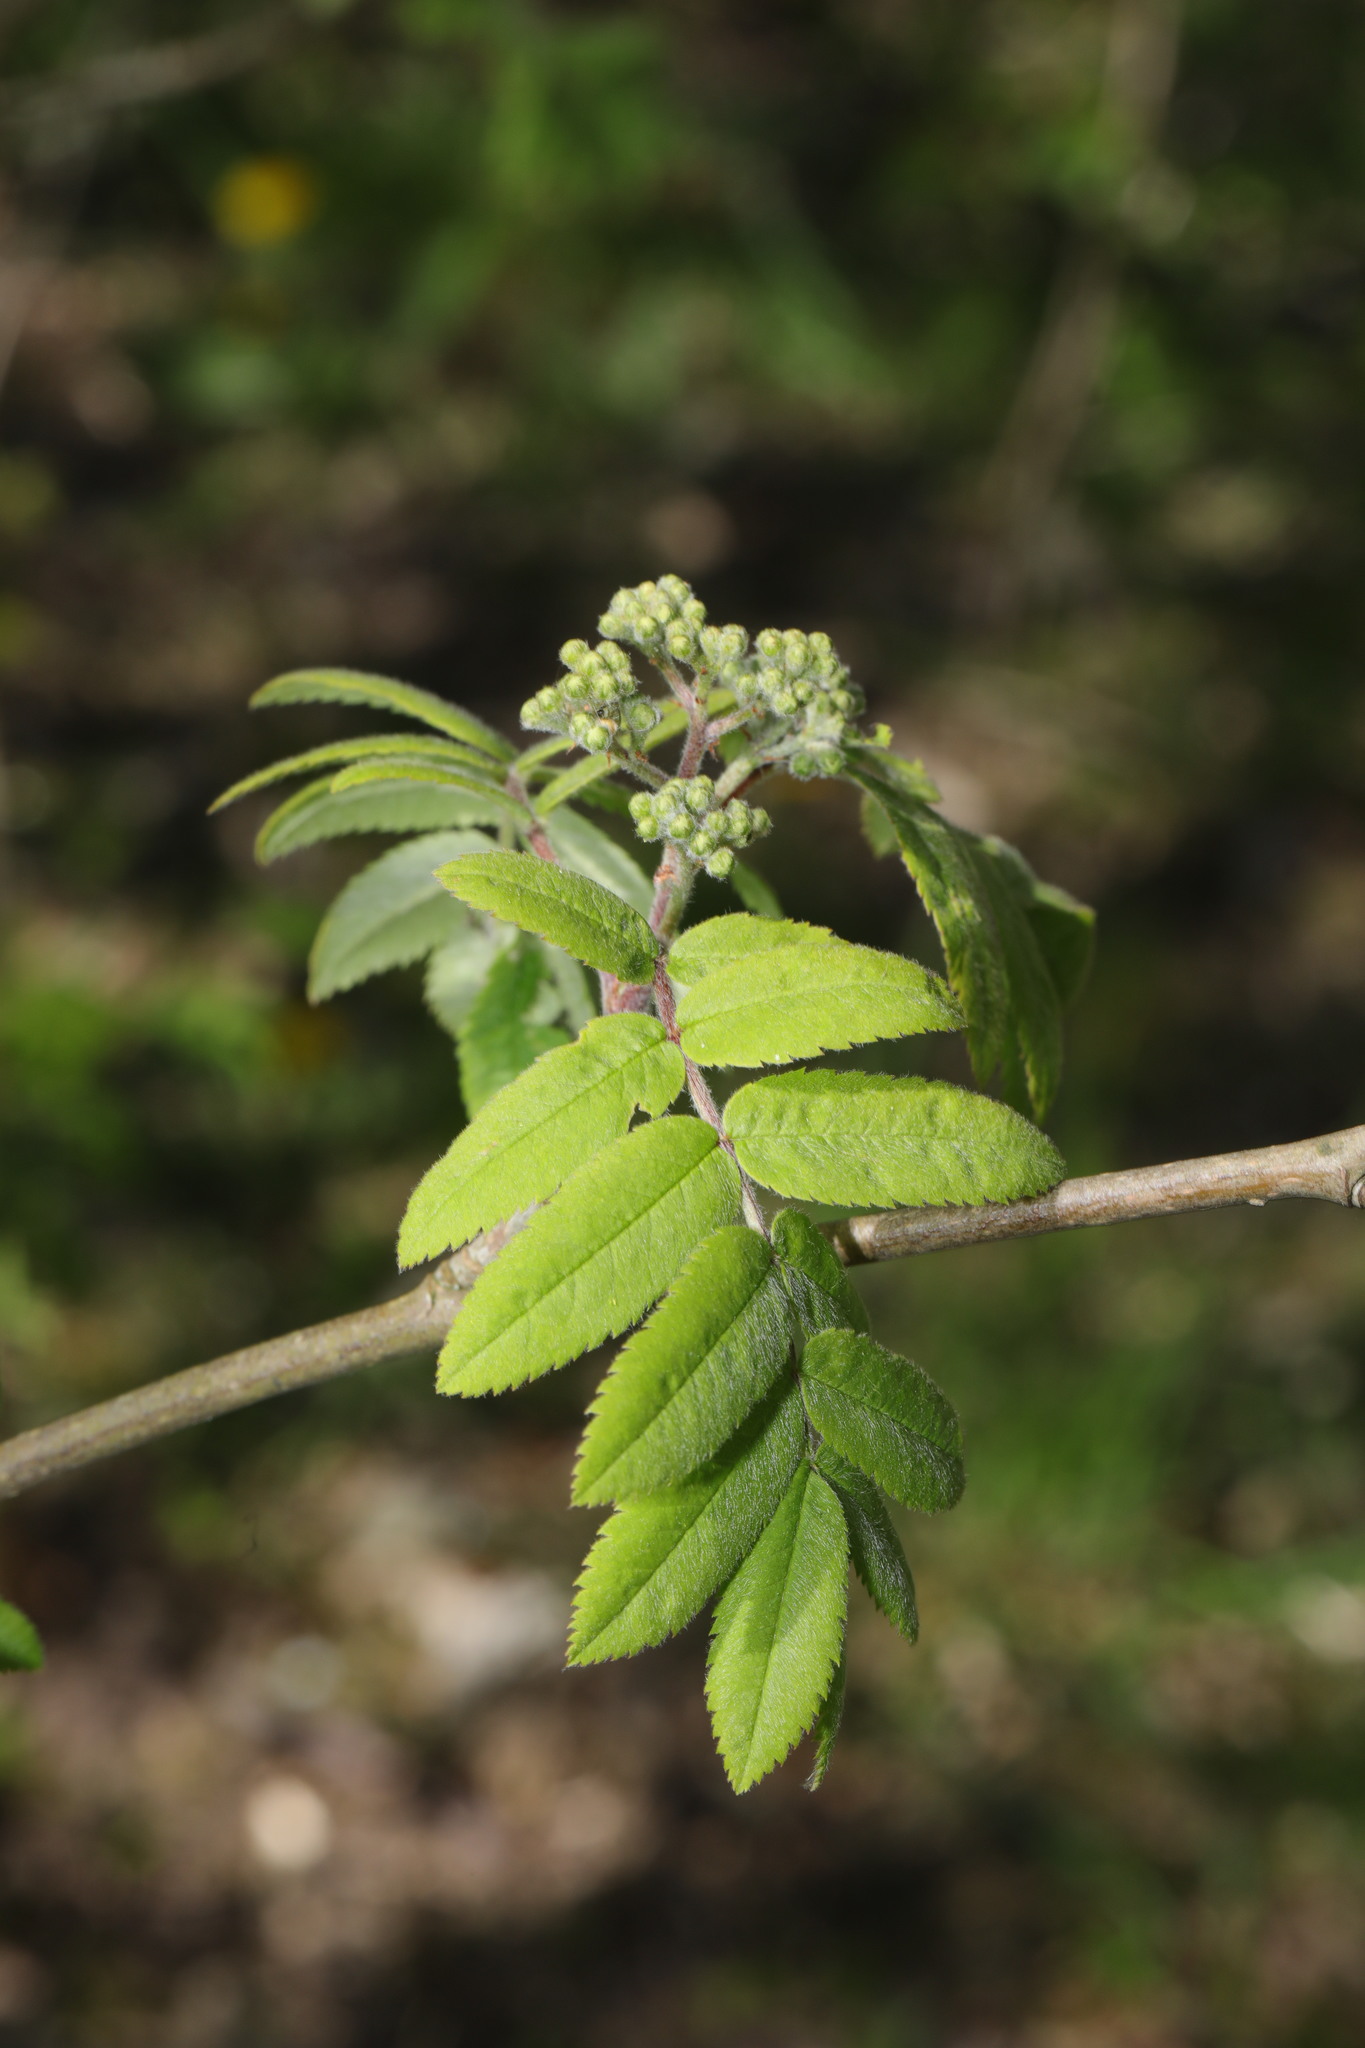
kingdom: Plantae
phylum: Tracheophyta
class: Magnoliopsida
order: Rosales
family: Rosaceae
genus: Sorbus
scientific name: Sorbus aucuparia
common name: Rowan
